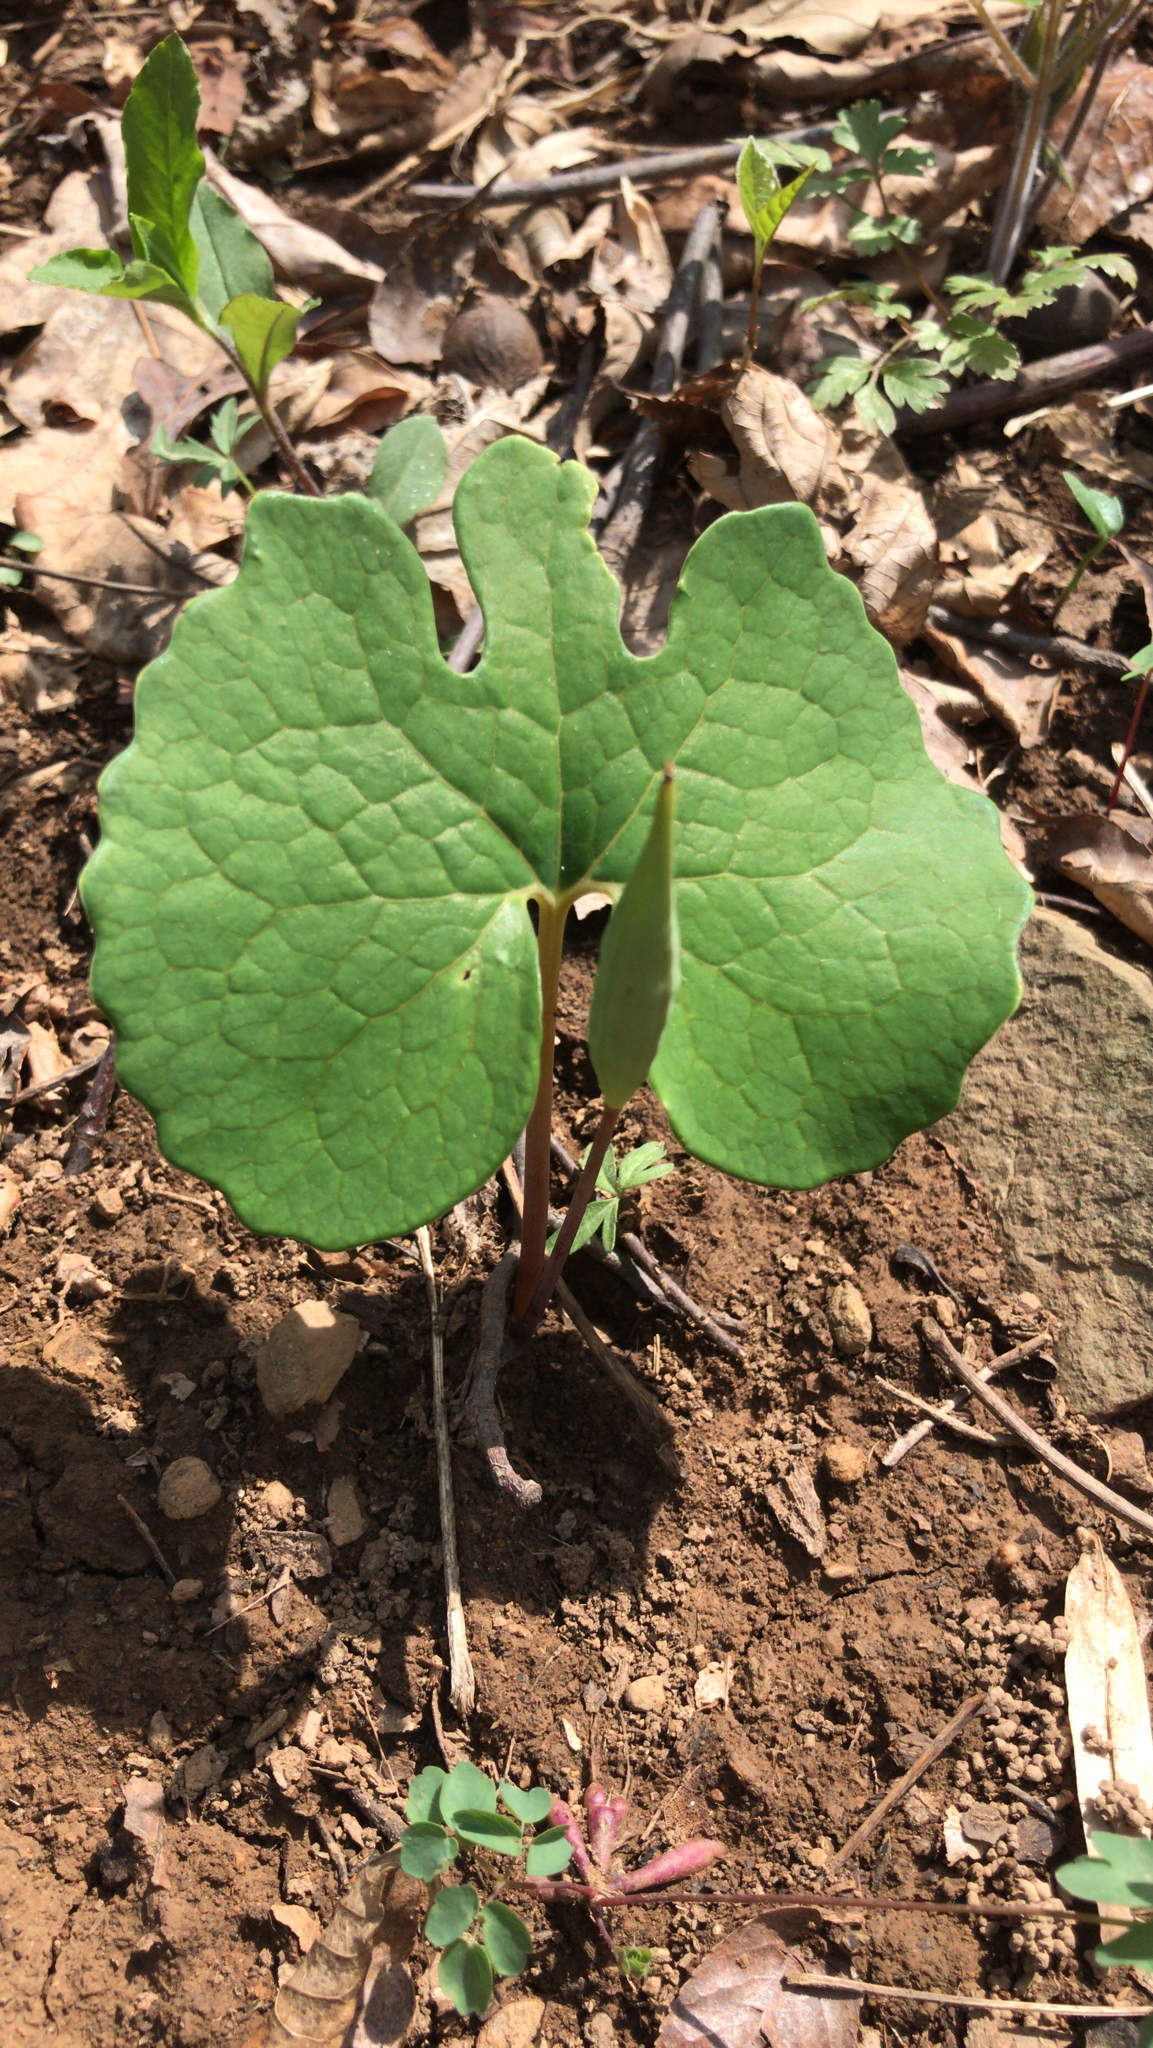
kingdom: Plantae
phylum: Tracheophyta
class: Magnoliopsida
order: Ranunculales
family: Papaveraceae
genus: Sanguinaria
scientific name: Sanguinaria canadensis
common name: Bloodroot
